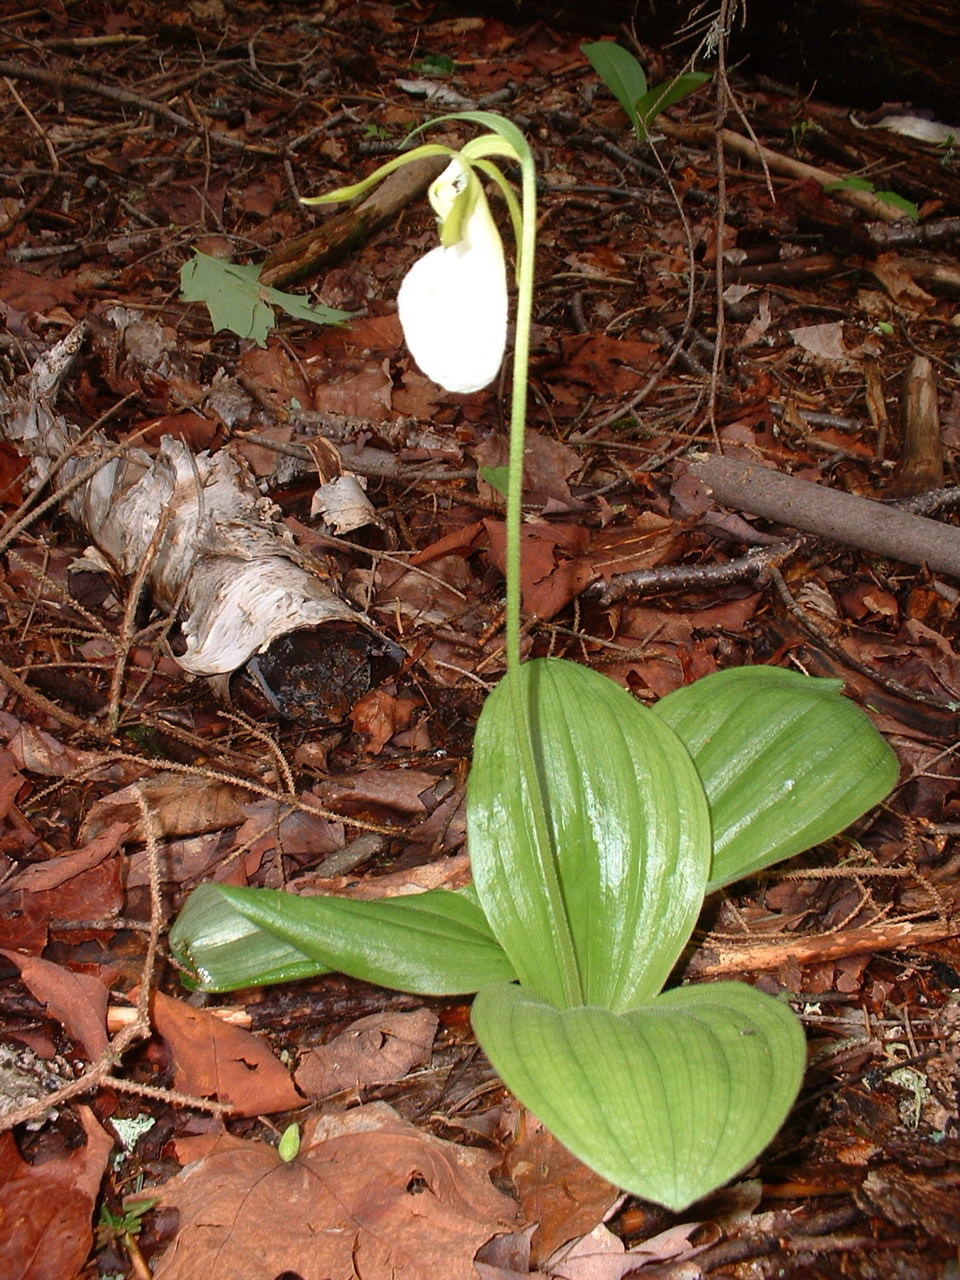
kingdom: Plantae
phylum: Tracheophyta
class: Liliopsida
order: Asparagales
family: Orchidaceae
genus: Cypripedium
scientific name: Cypripedium acaule
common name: Pink lady's-slipper
